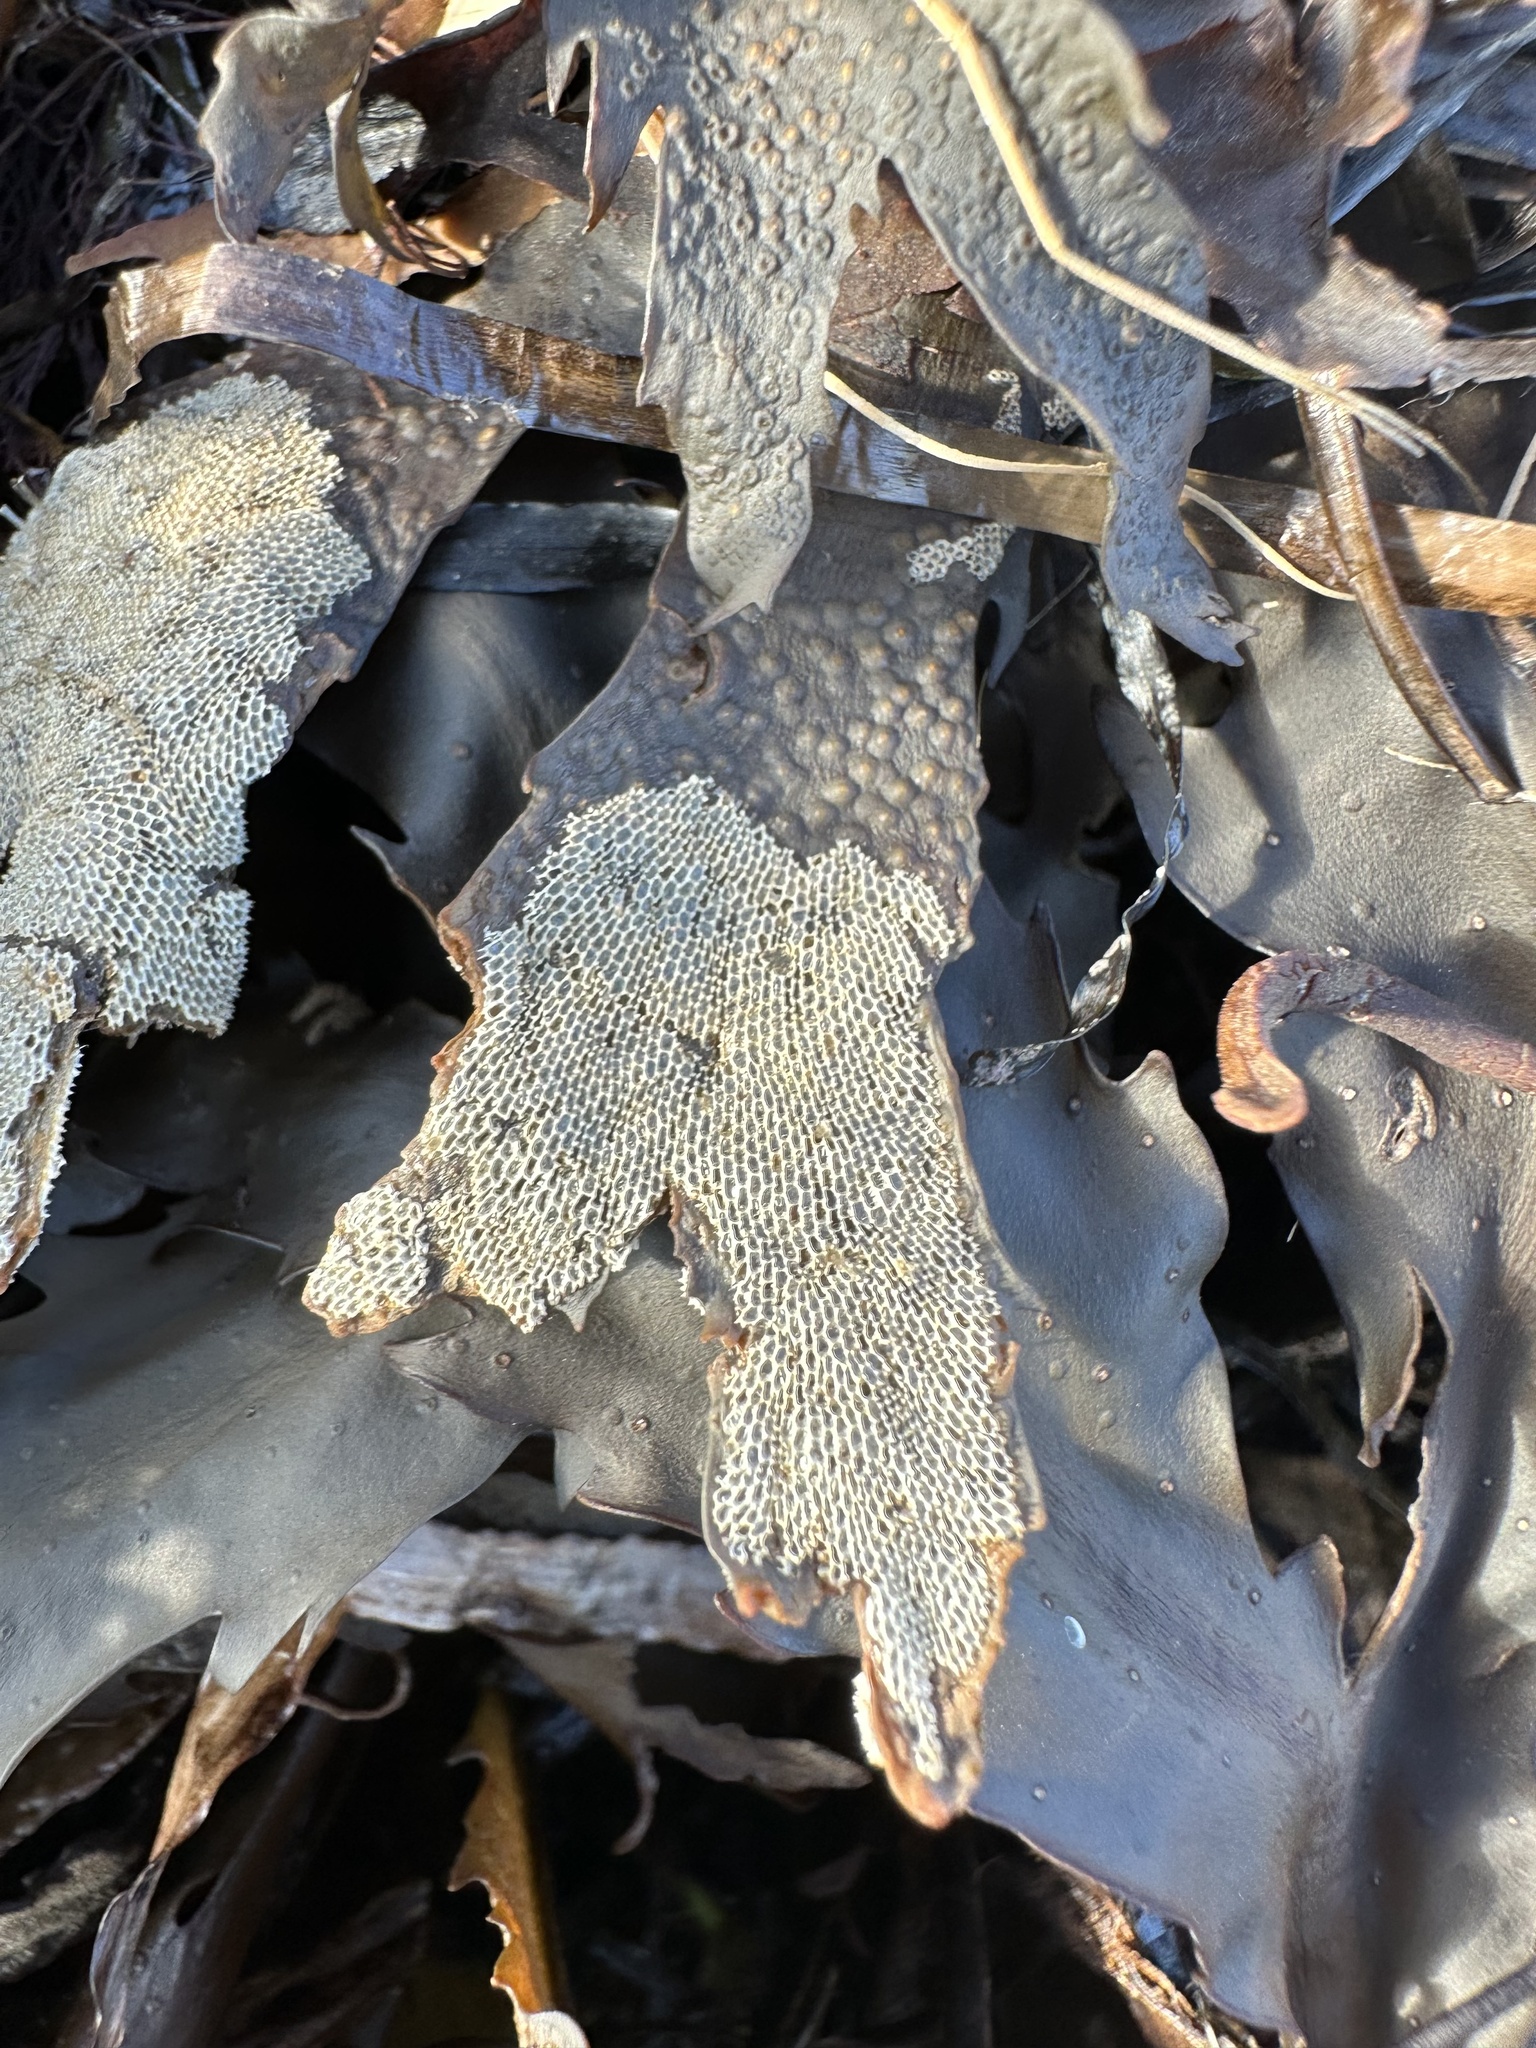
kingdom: Animalia
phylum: Bryozoa
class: Gymnolaemata
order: Cheilostomatida
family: Membraniporidae
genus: Membranipora
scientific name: Membranipora membranacea
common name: Sea mat
